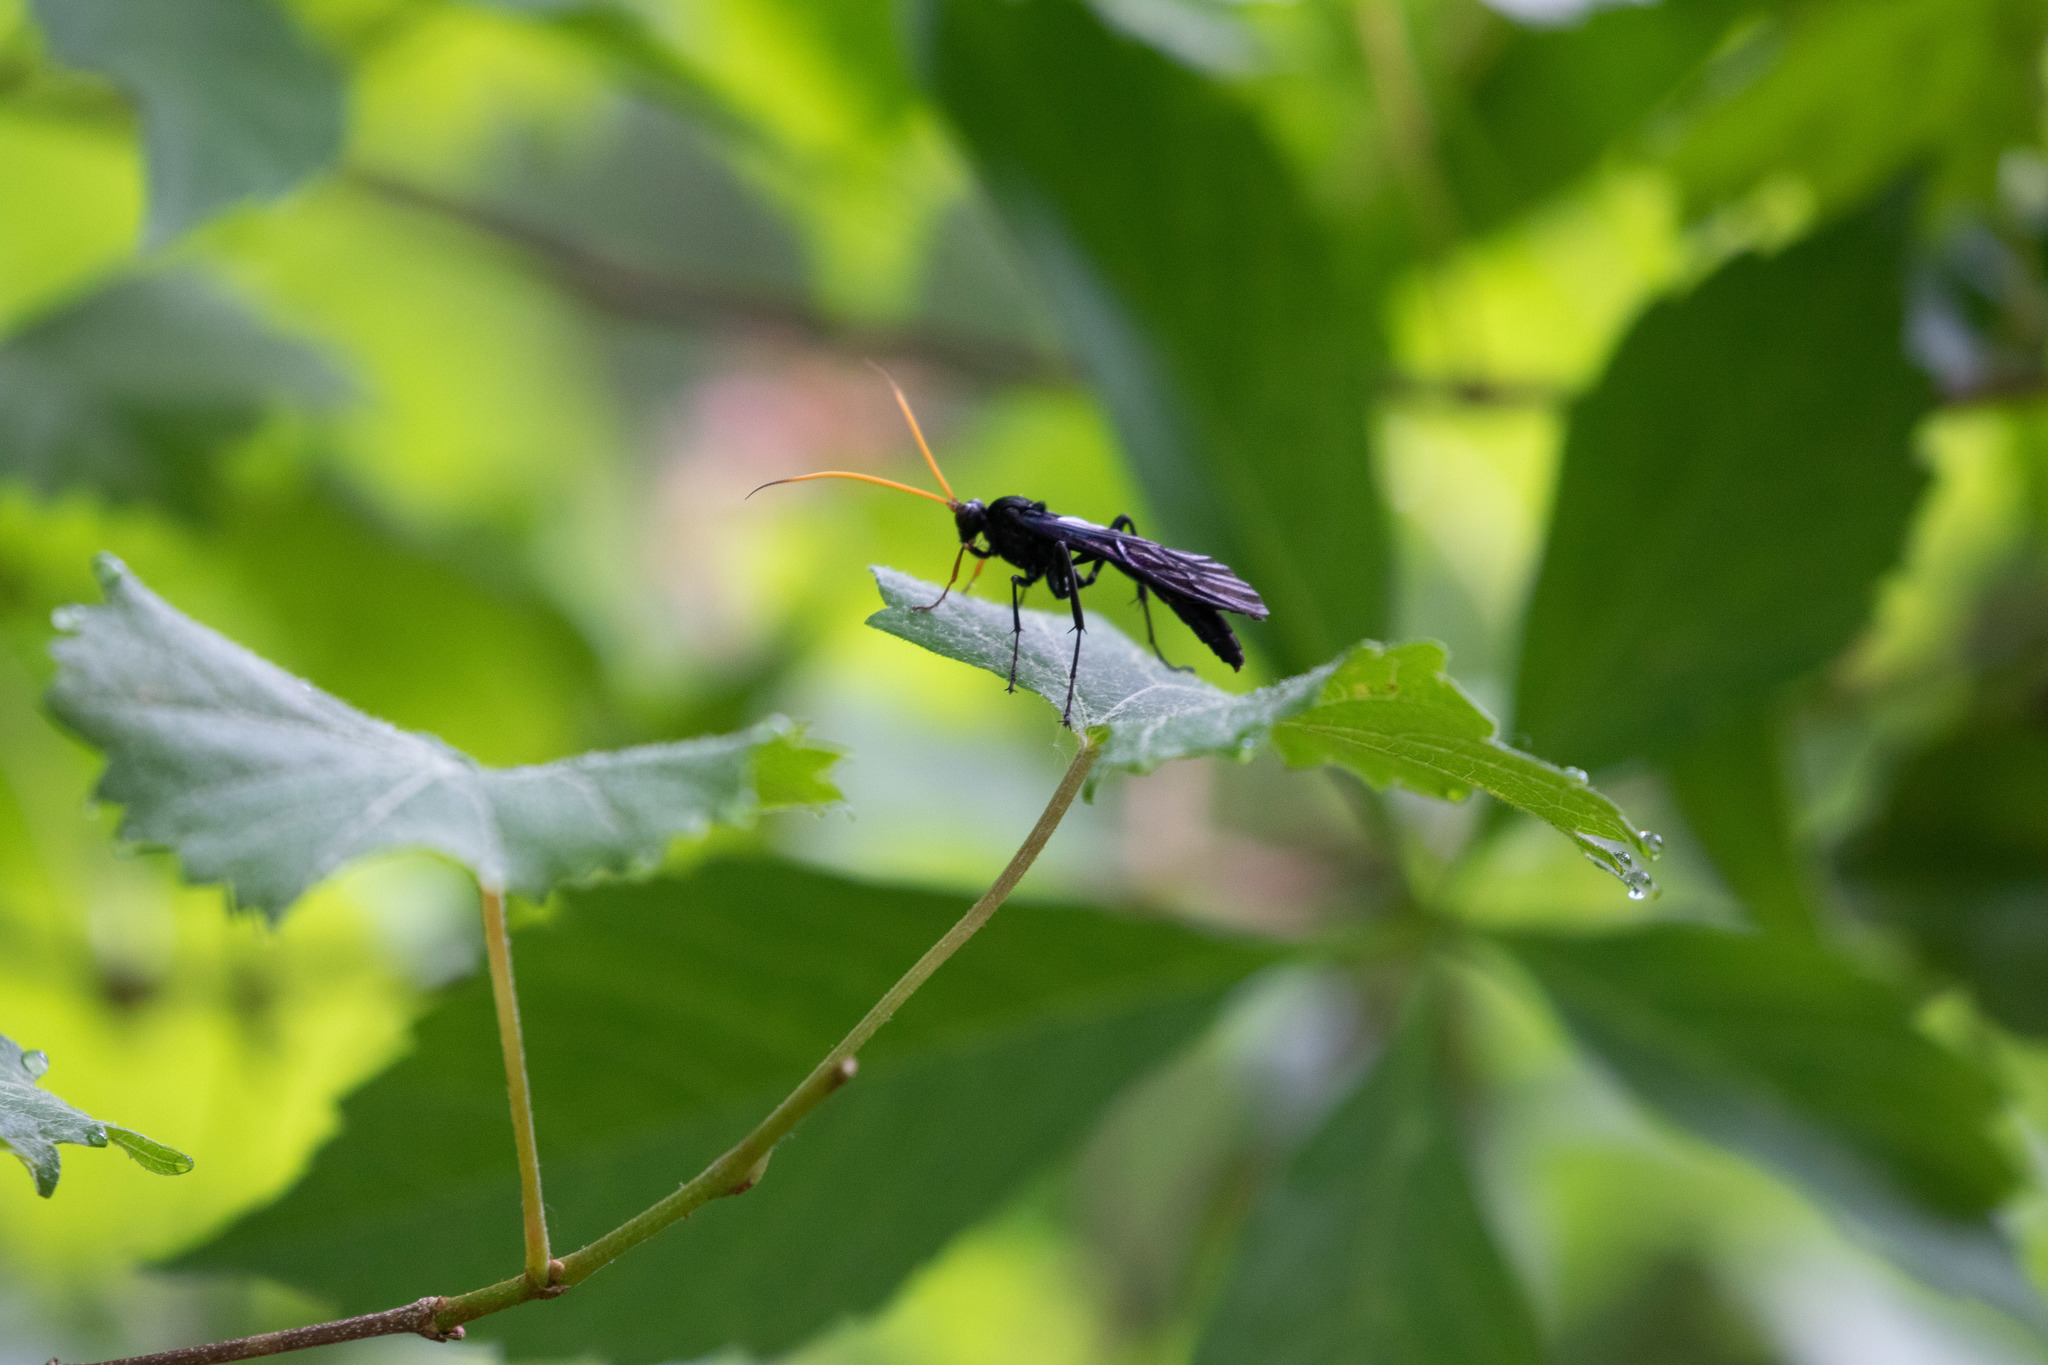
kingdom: Animalia
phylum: Arthropoda
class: Insecta
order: Hymenoptera
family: Ichneumonidae
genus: Gnamptopelta
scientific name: Gnamptopelta obsidianator
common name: Bent-shielded besieger wasp
